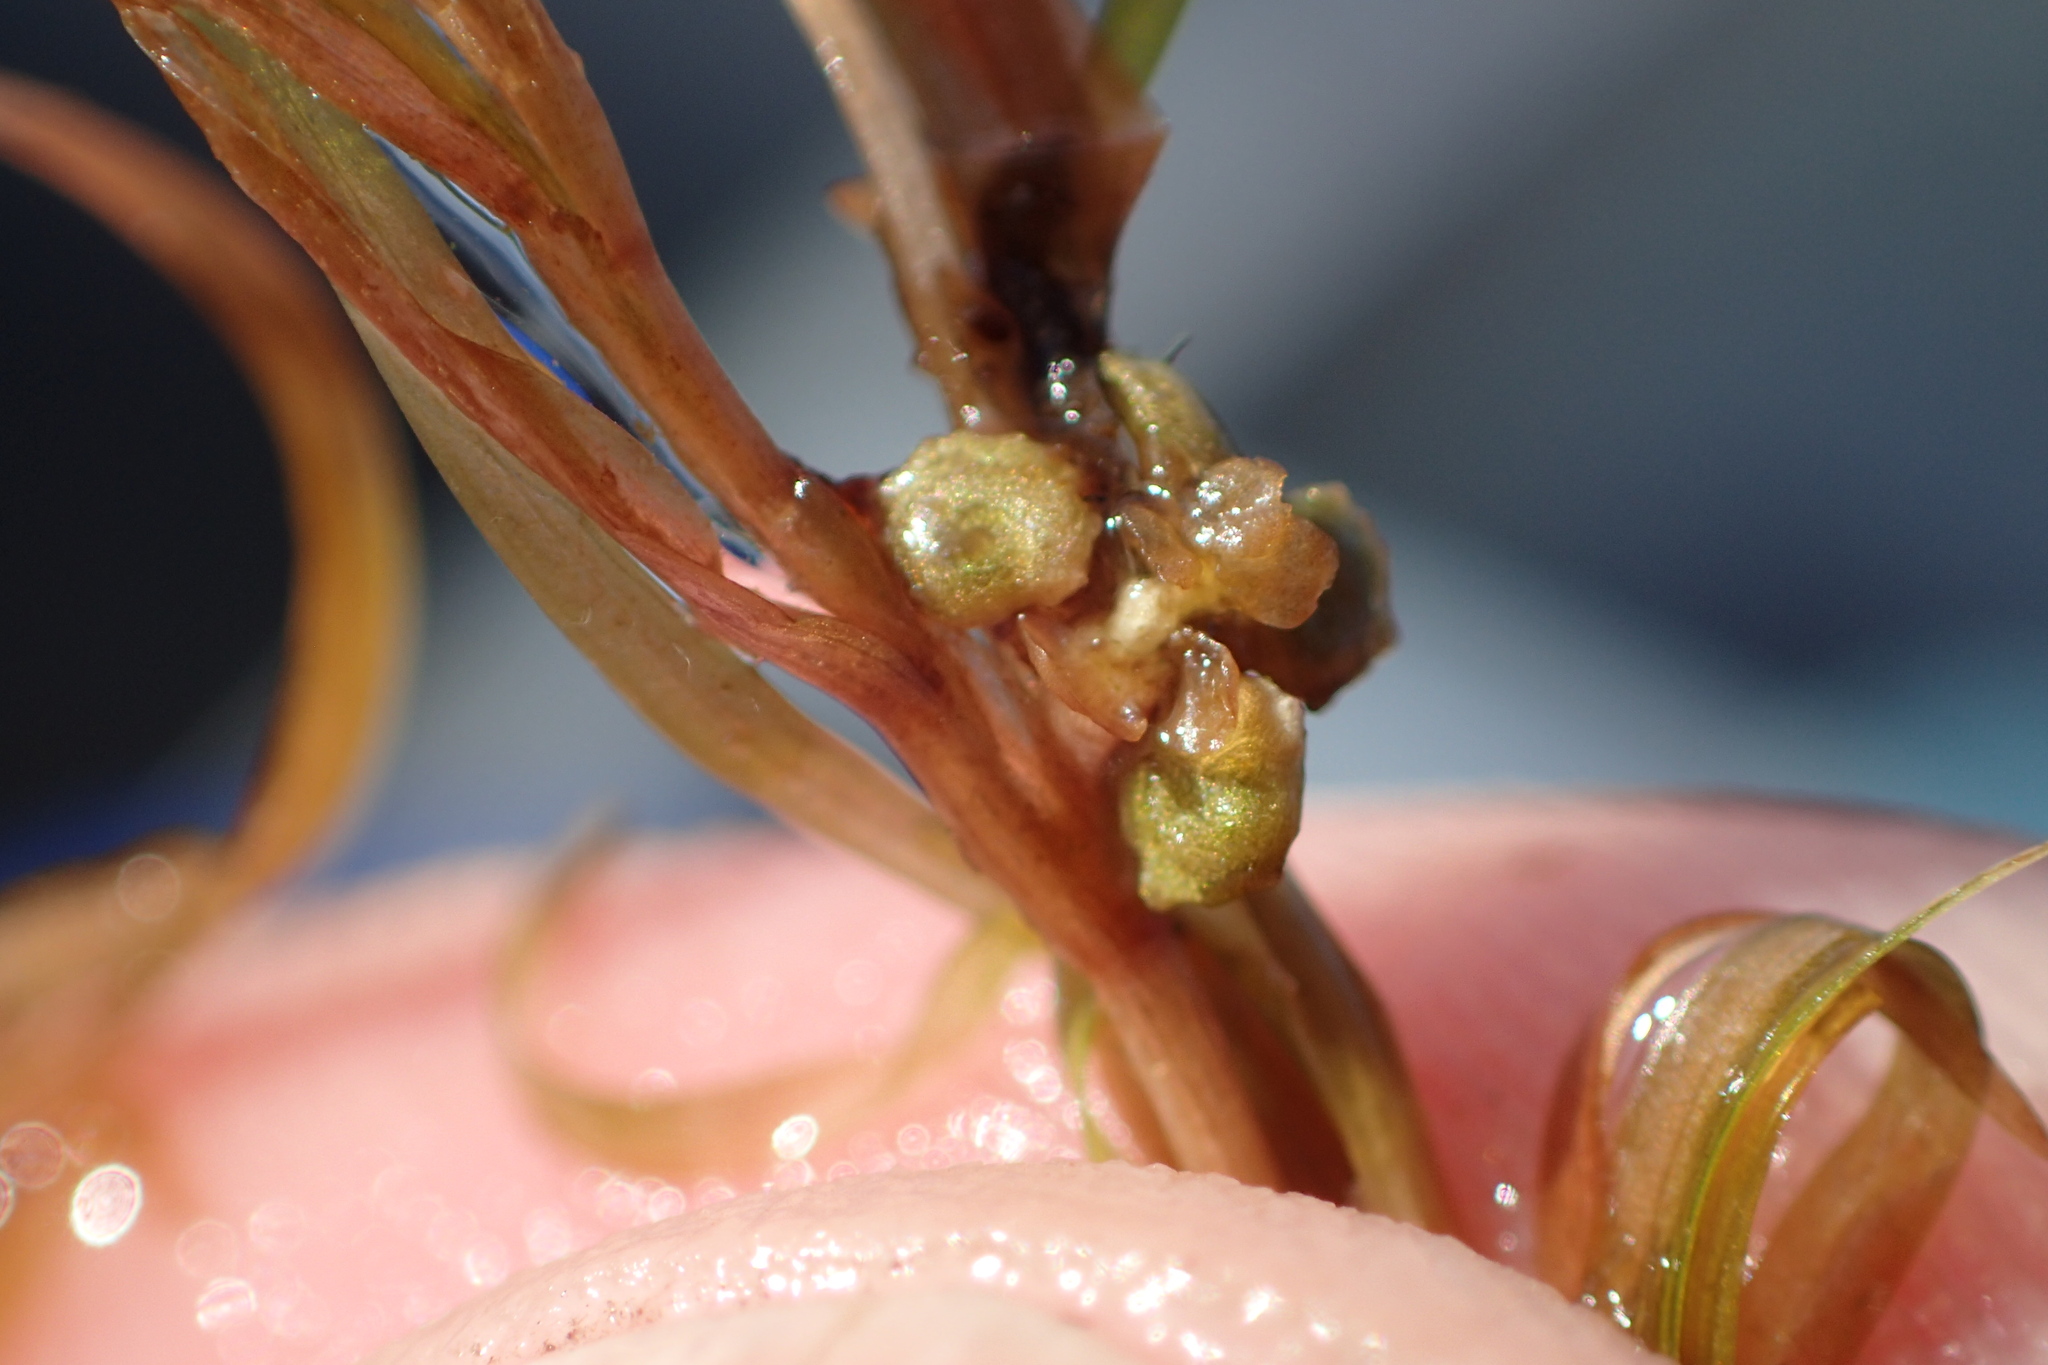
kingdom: Plantae
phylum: Tracheophyta
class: Liliopsida
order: Alismatales
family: Potamogetonaceae
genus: Potamogeton
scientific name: Potamogeton spirillus
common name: Northern snail-seed pondweed
